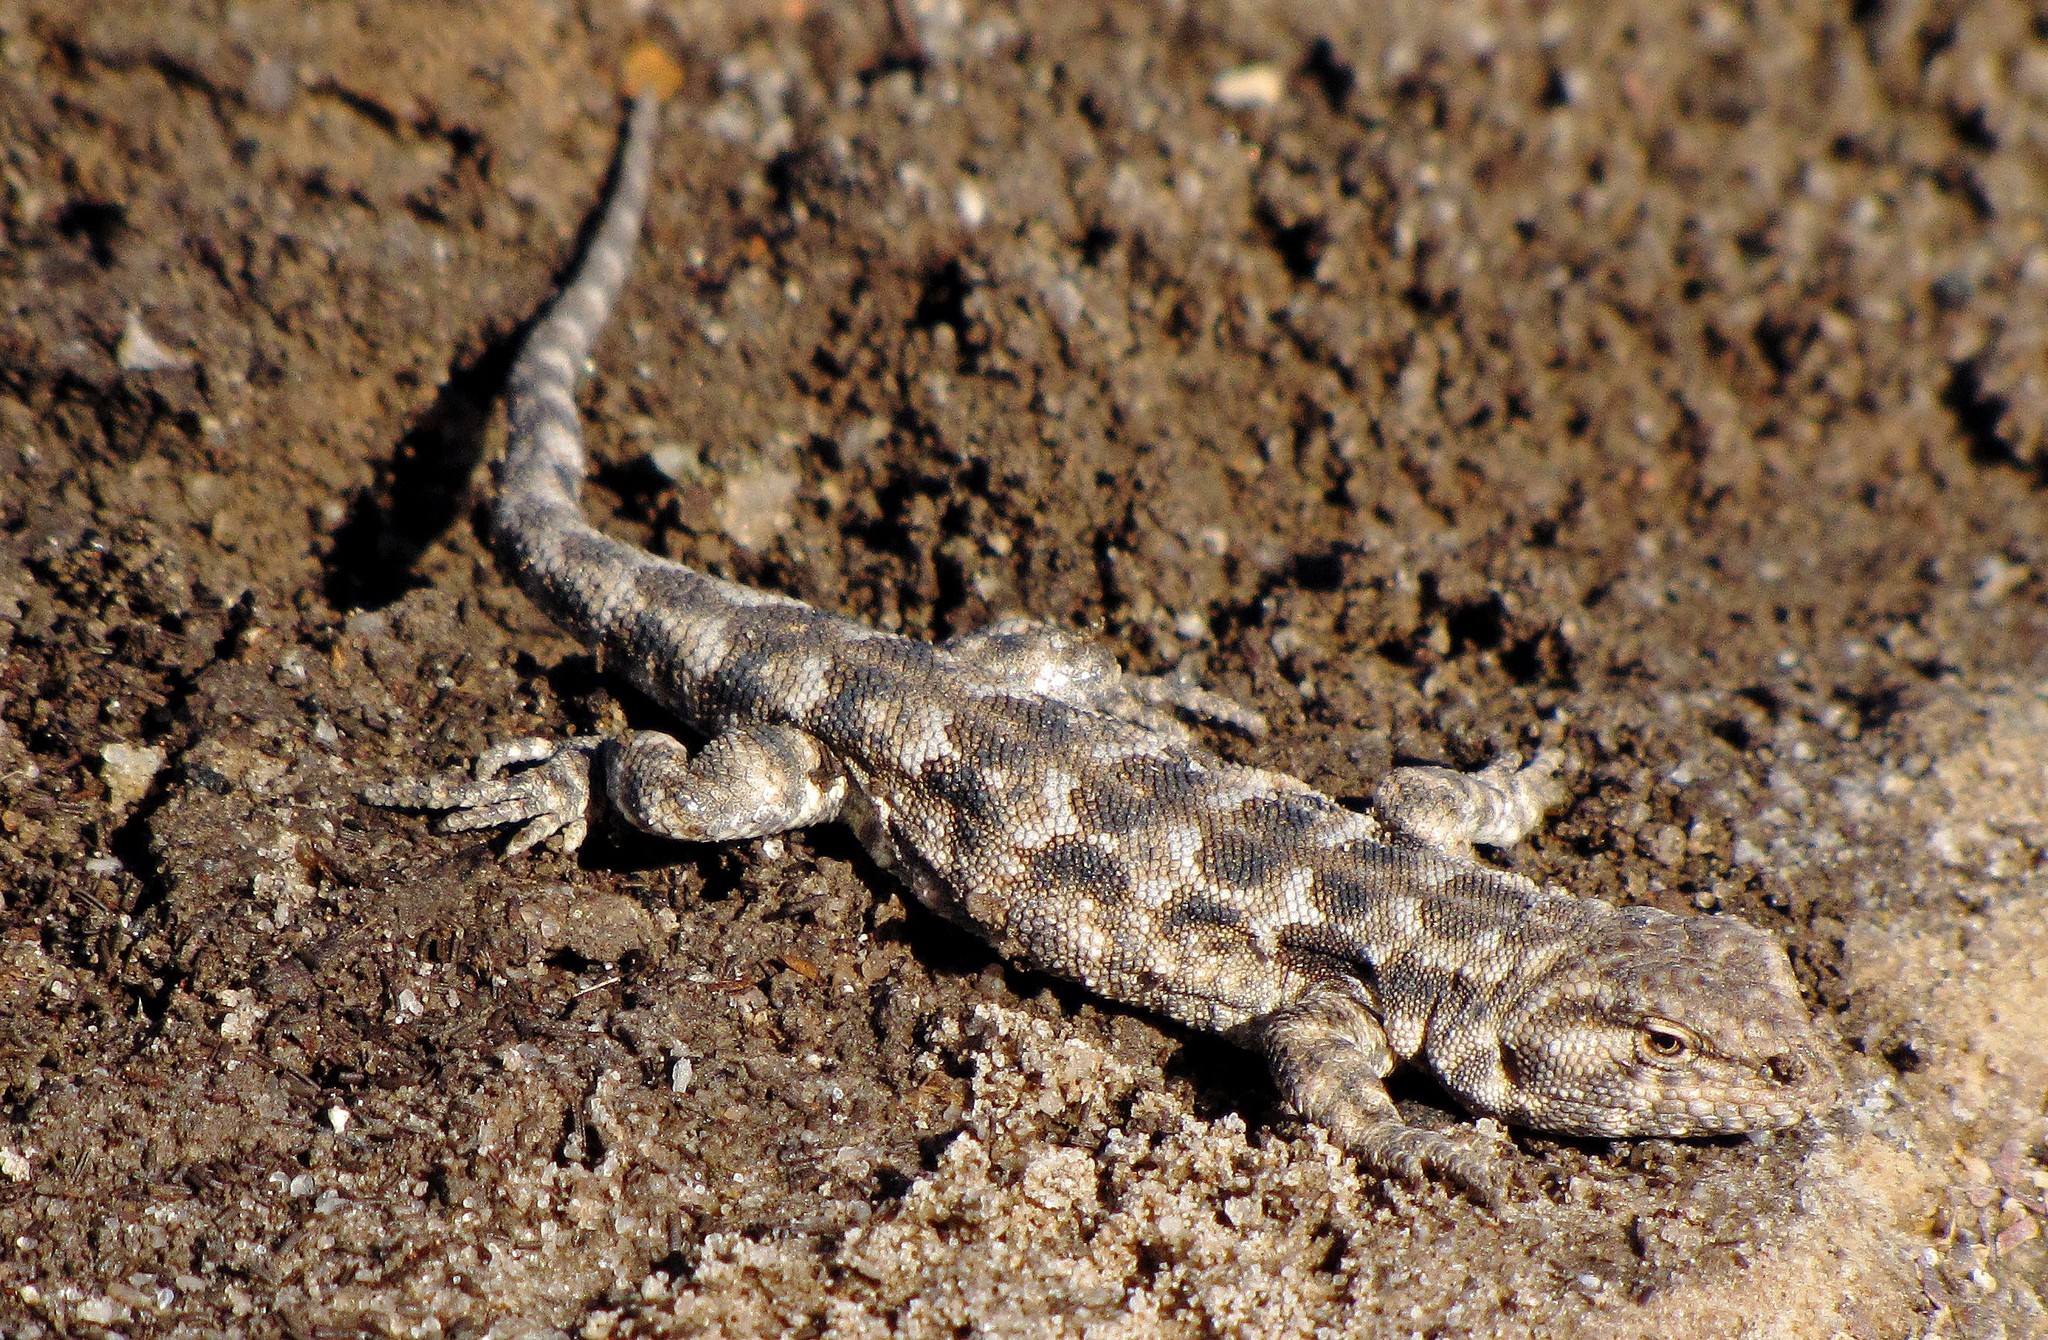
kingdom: Animalia
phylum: Chordata
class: Squamata
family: Liolaemidae
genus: Liolaemus
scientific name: Liolaemus ditadai
